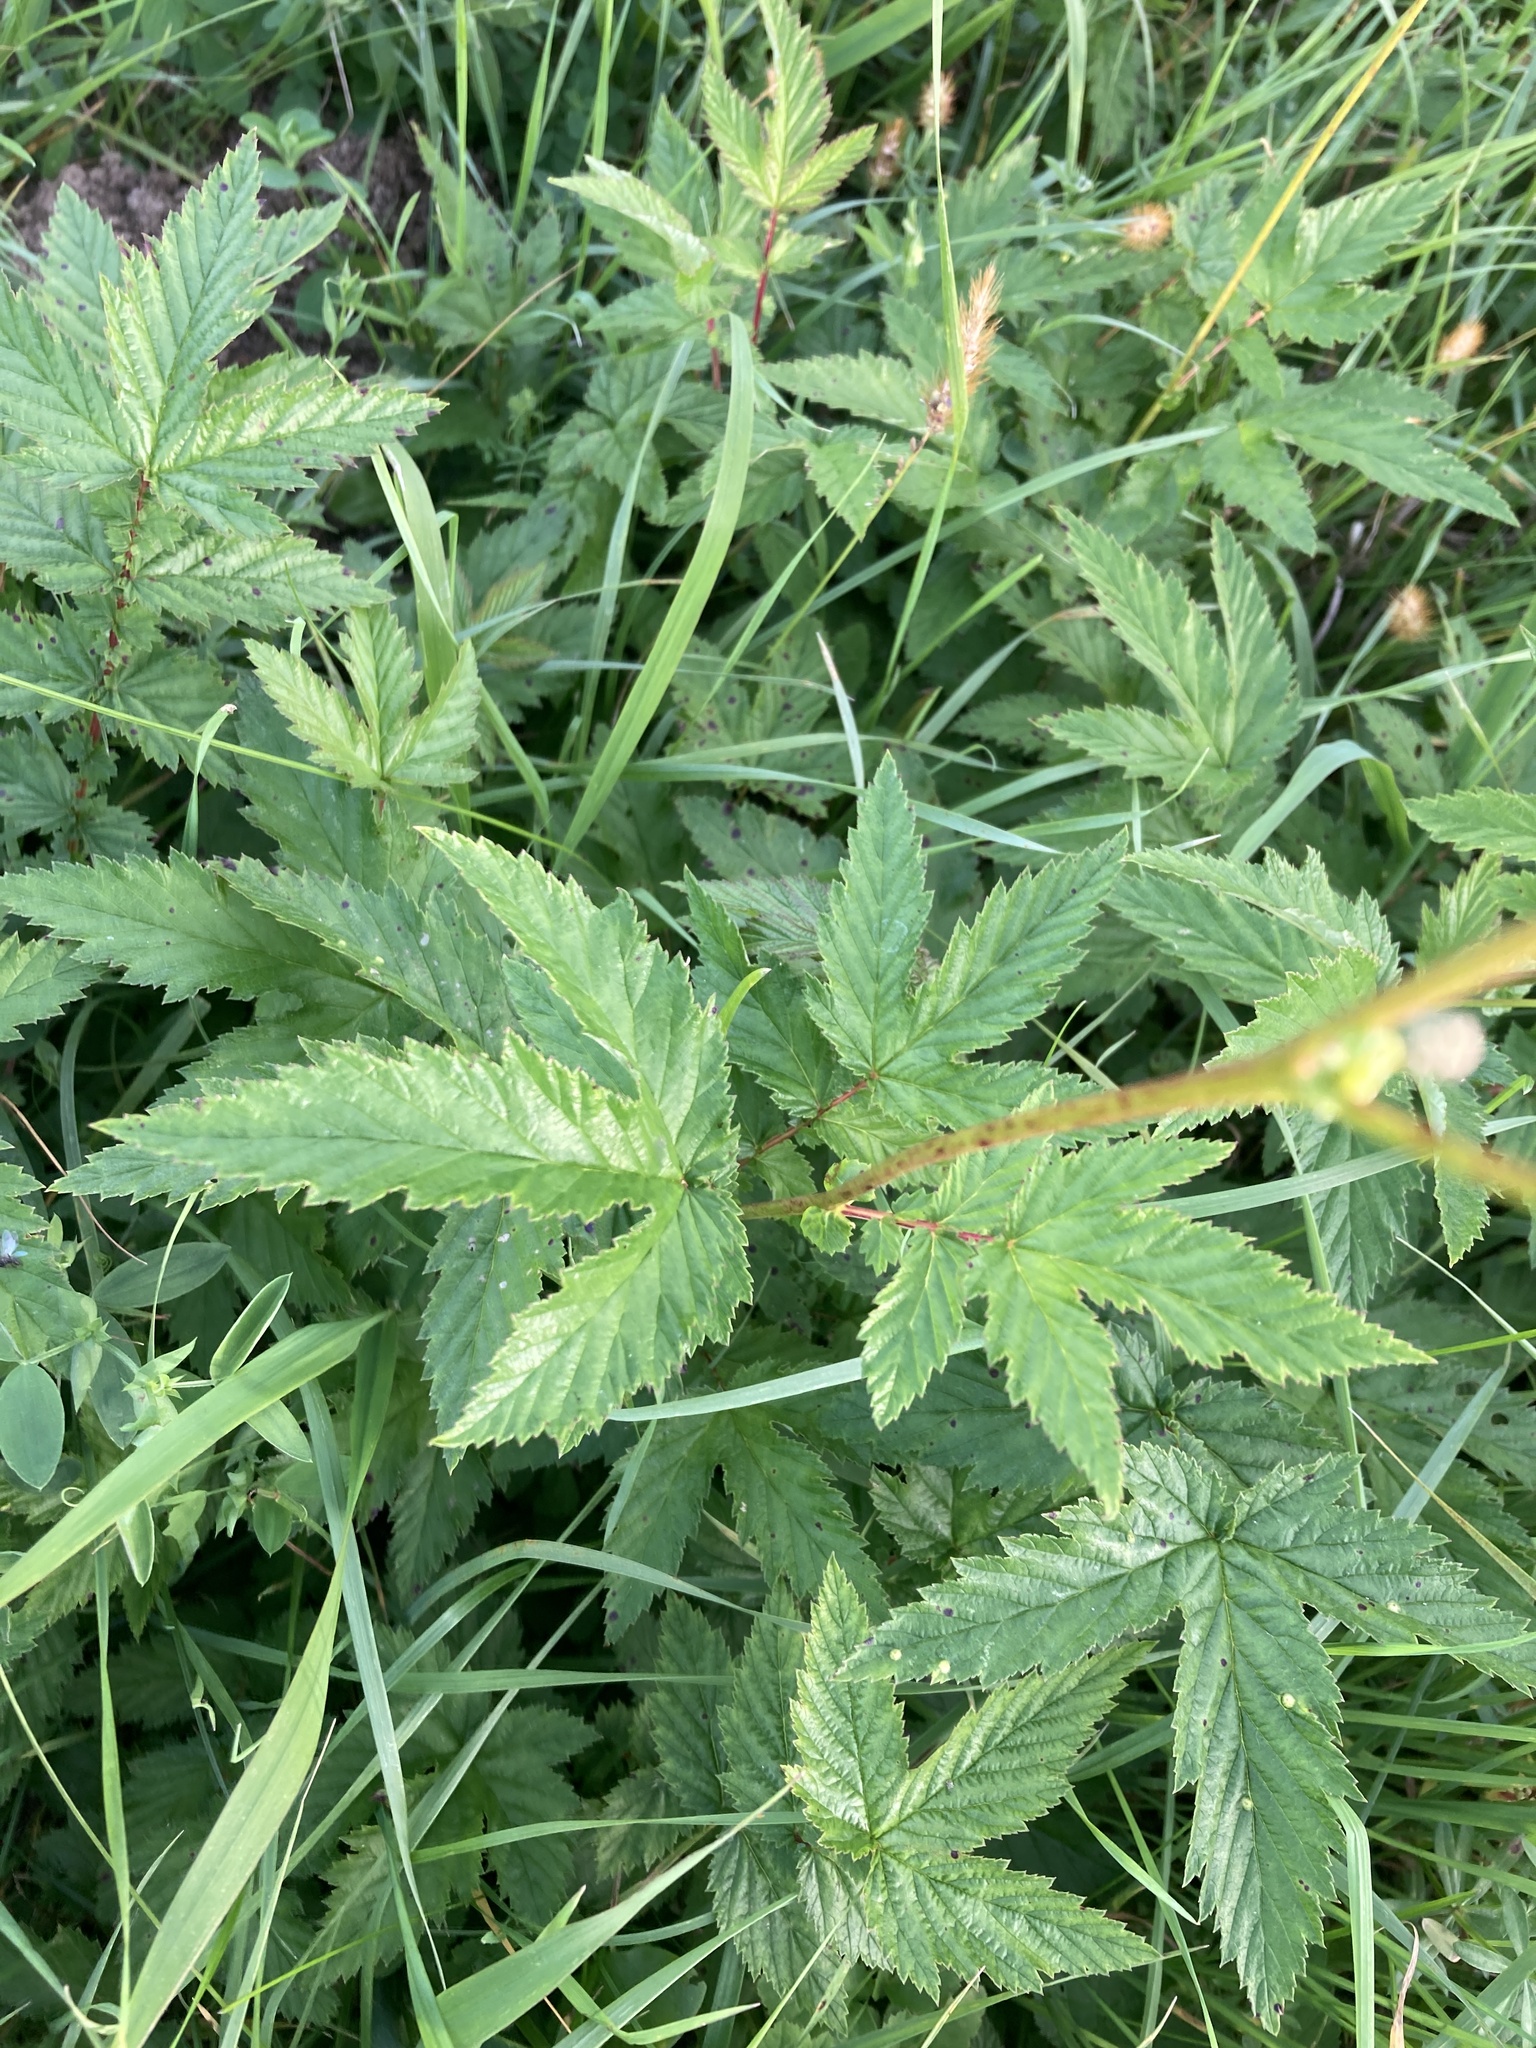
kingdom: Plantae
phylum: Tracheophyta
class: Magnoliopsida
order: Rosales
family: Rosaceae
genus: Filipendula
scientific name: Filipendula ulmaria
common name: Meadowsweet
